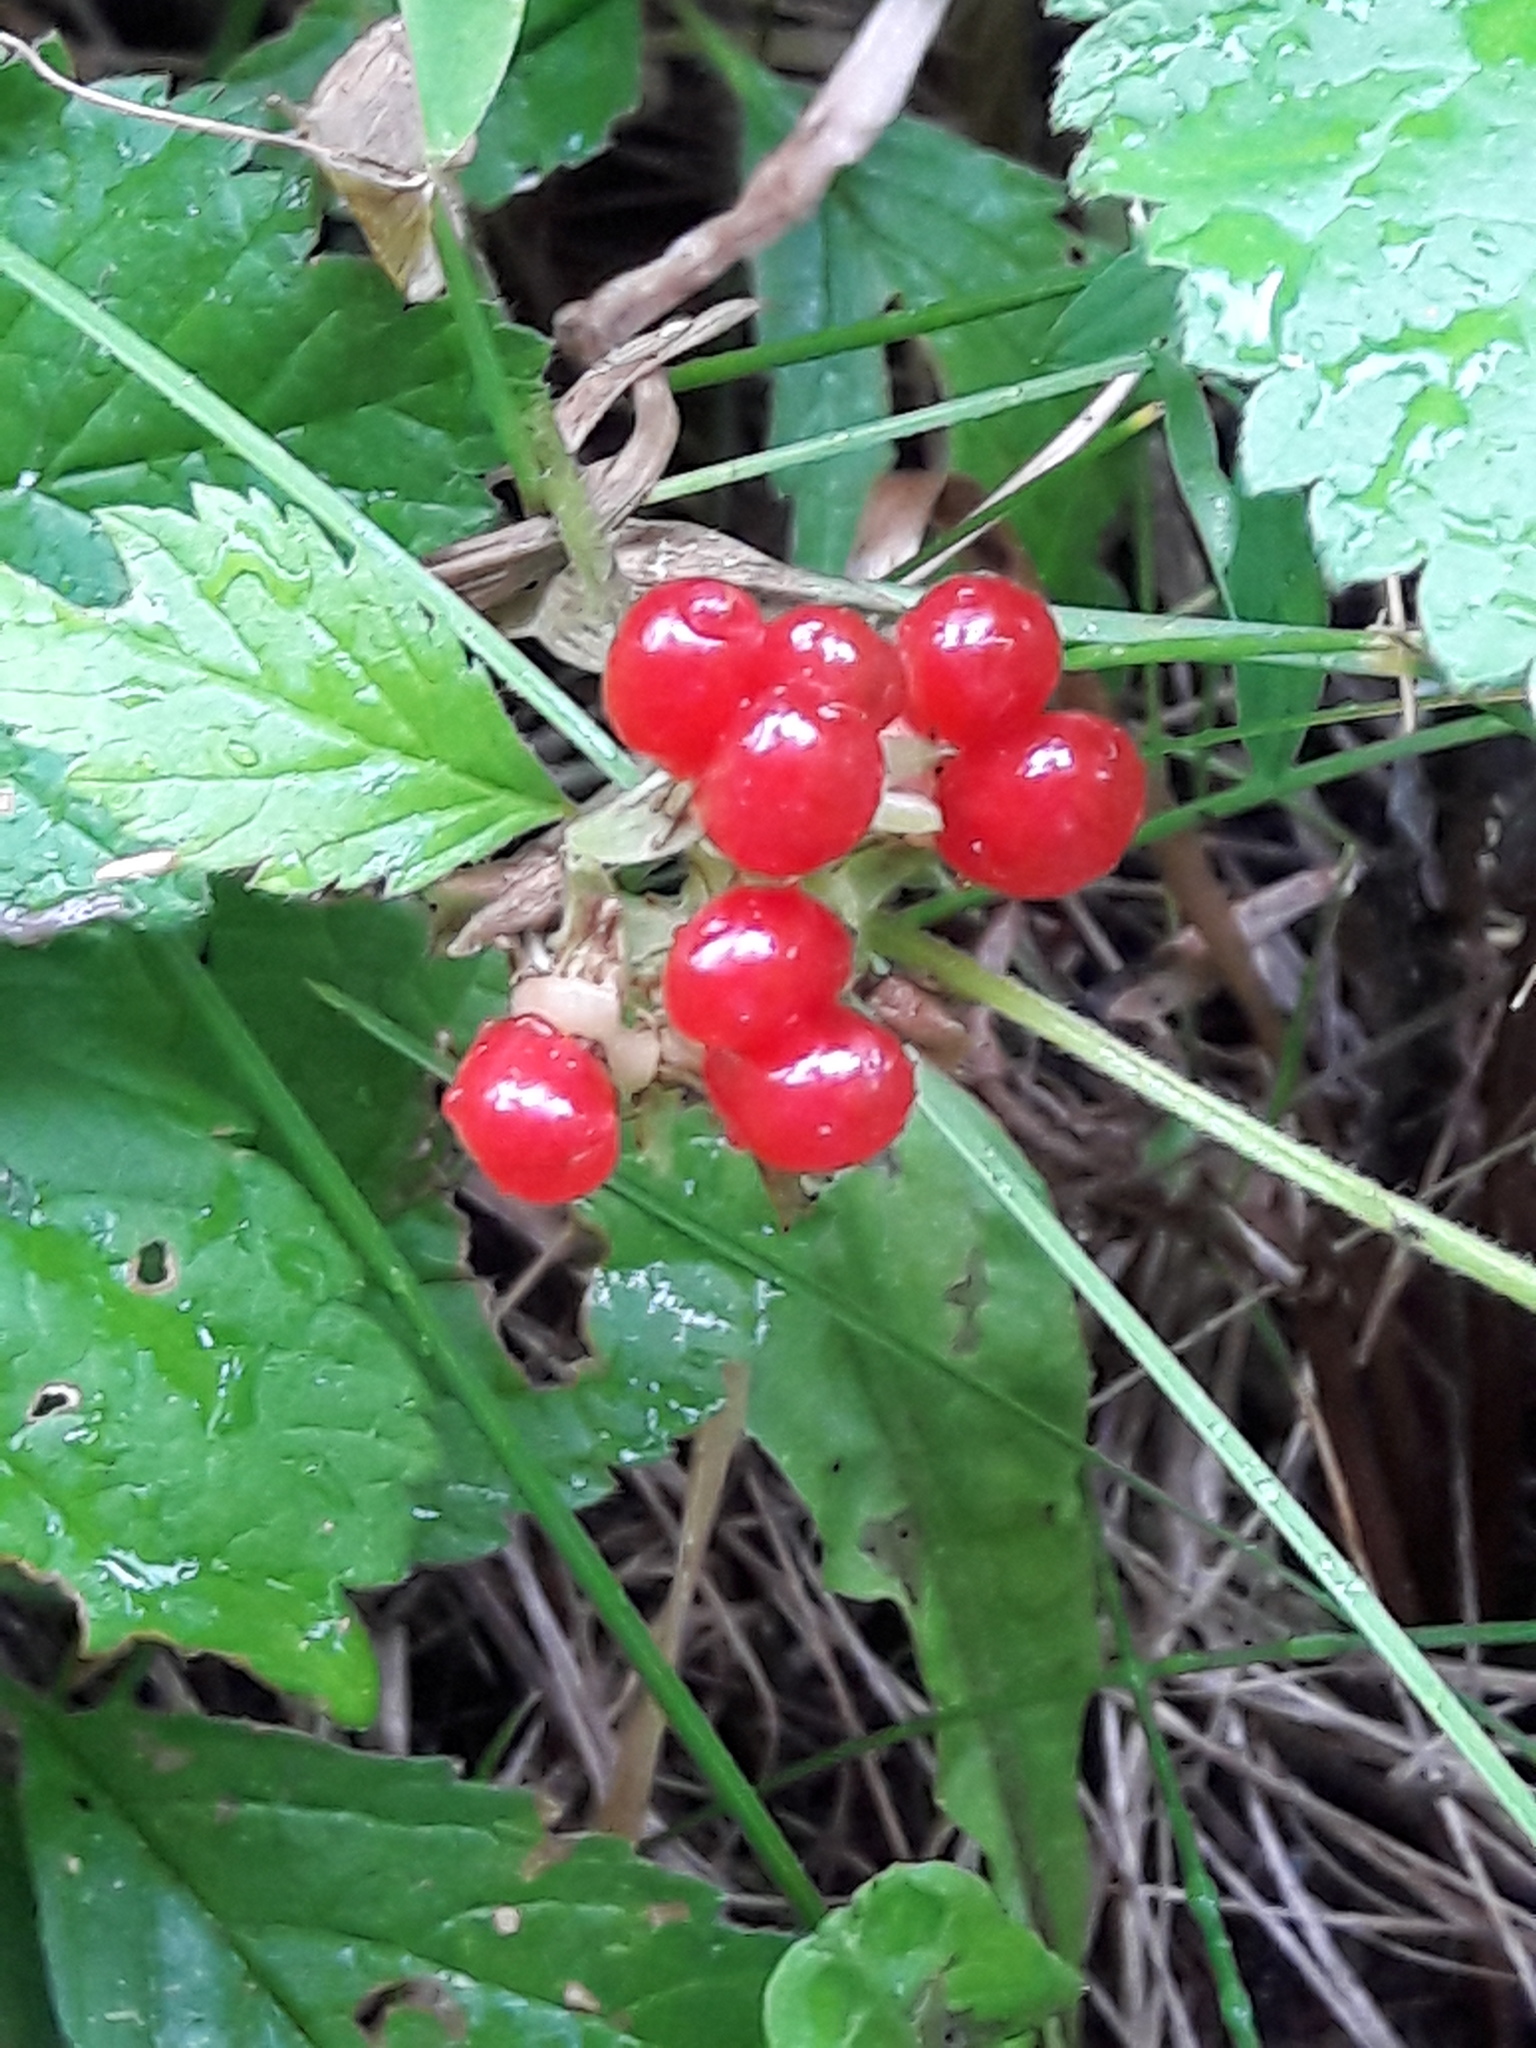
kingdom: Plantae
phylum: Tracheophyta
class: Magnoliopsida
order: Rosales
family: Rosaceae
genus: Rubus
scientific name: Rubus saxatilis
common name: Stone bramble
